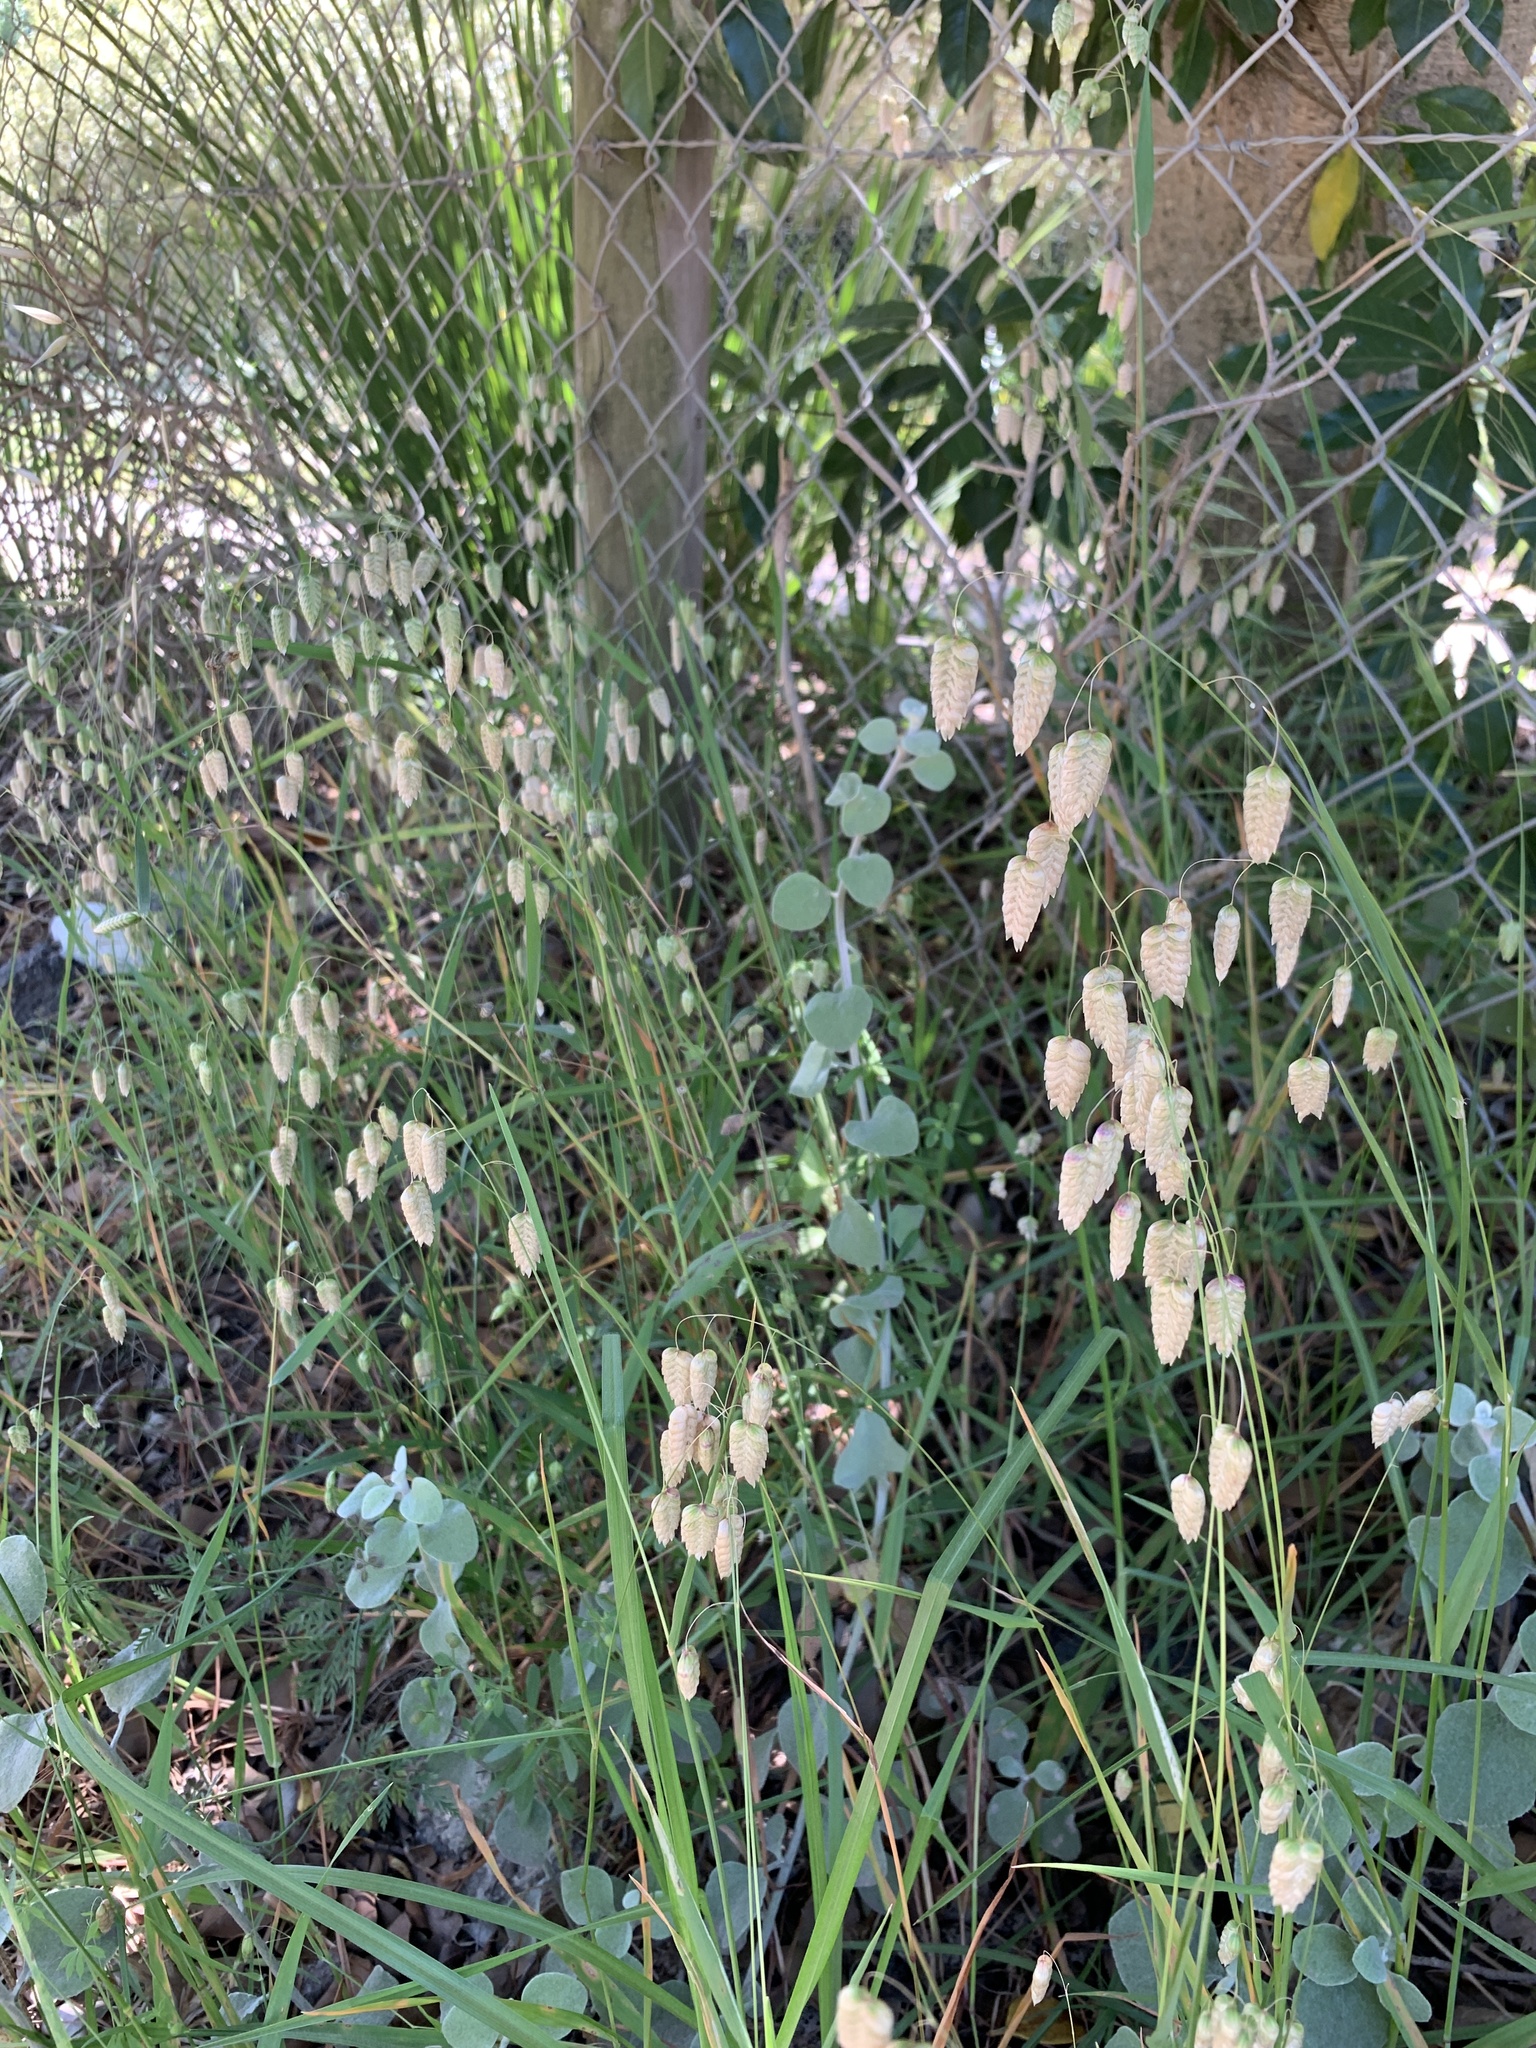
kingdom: Plantae
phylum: Tracheophyta
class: Liliopsida
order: Poales
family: Poaceae
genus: Briza
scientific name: Briza maxima
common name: Big quakinggrass
